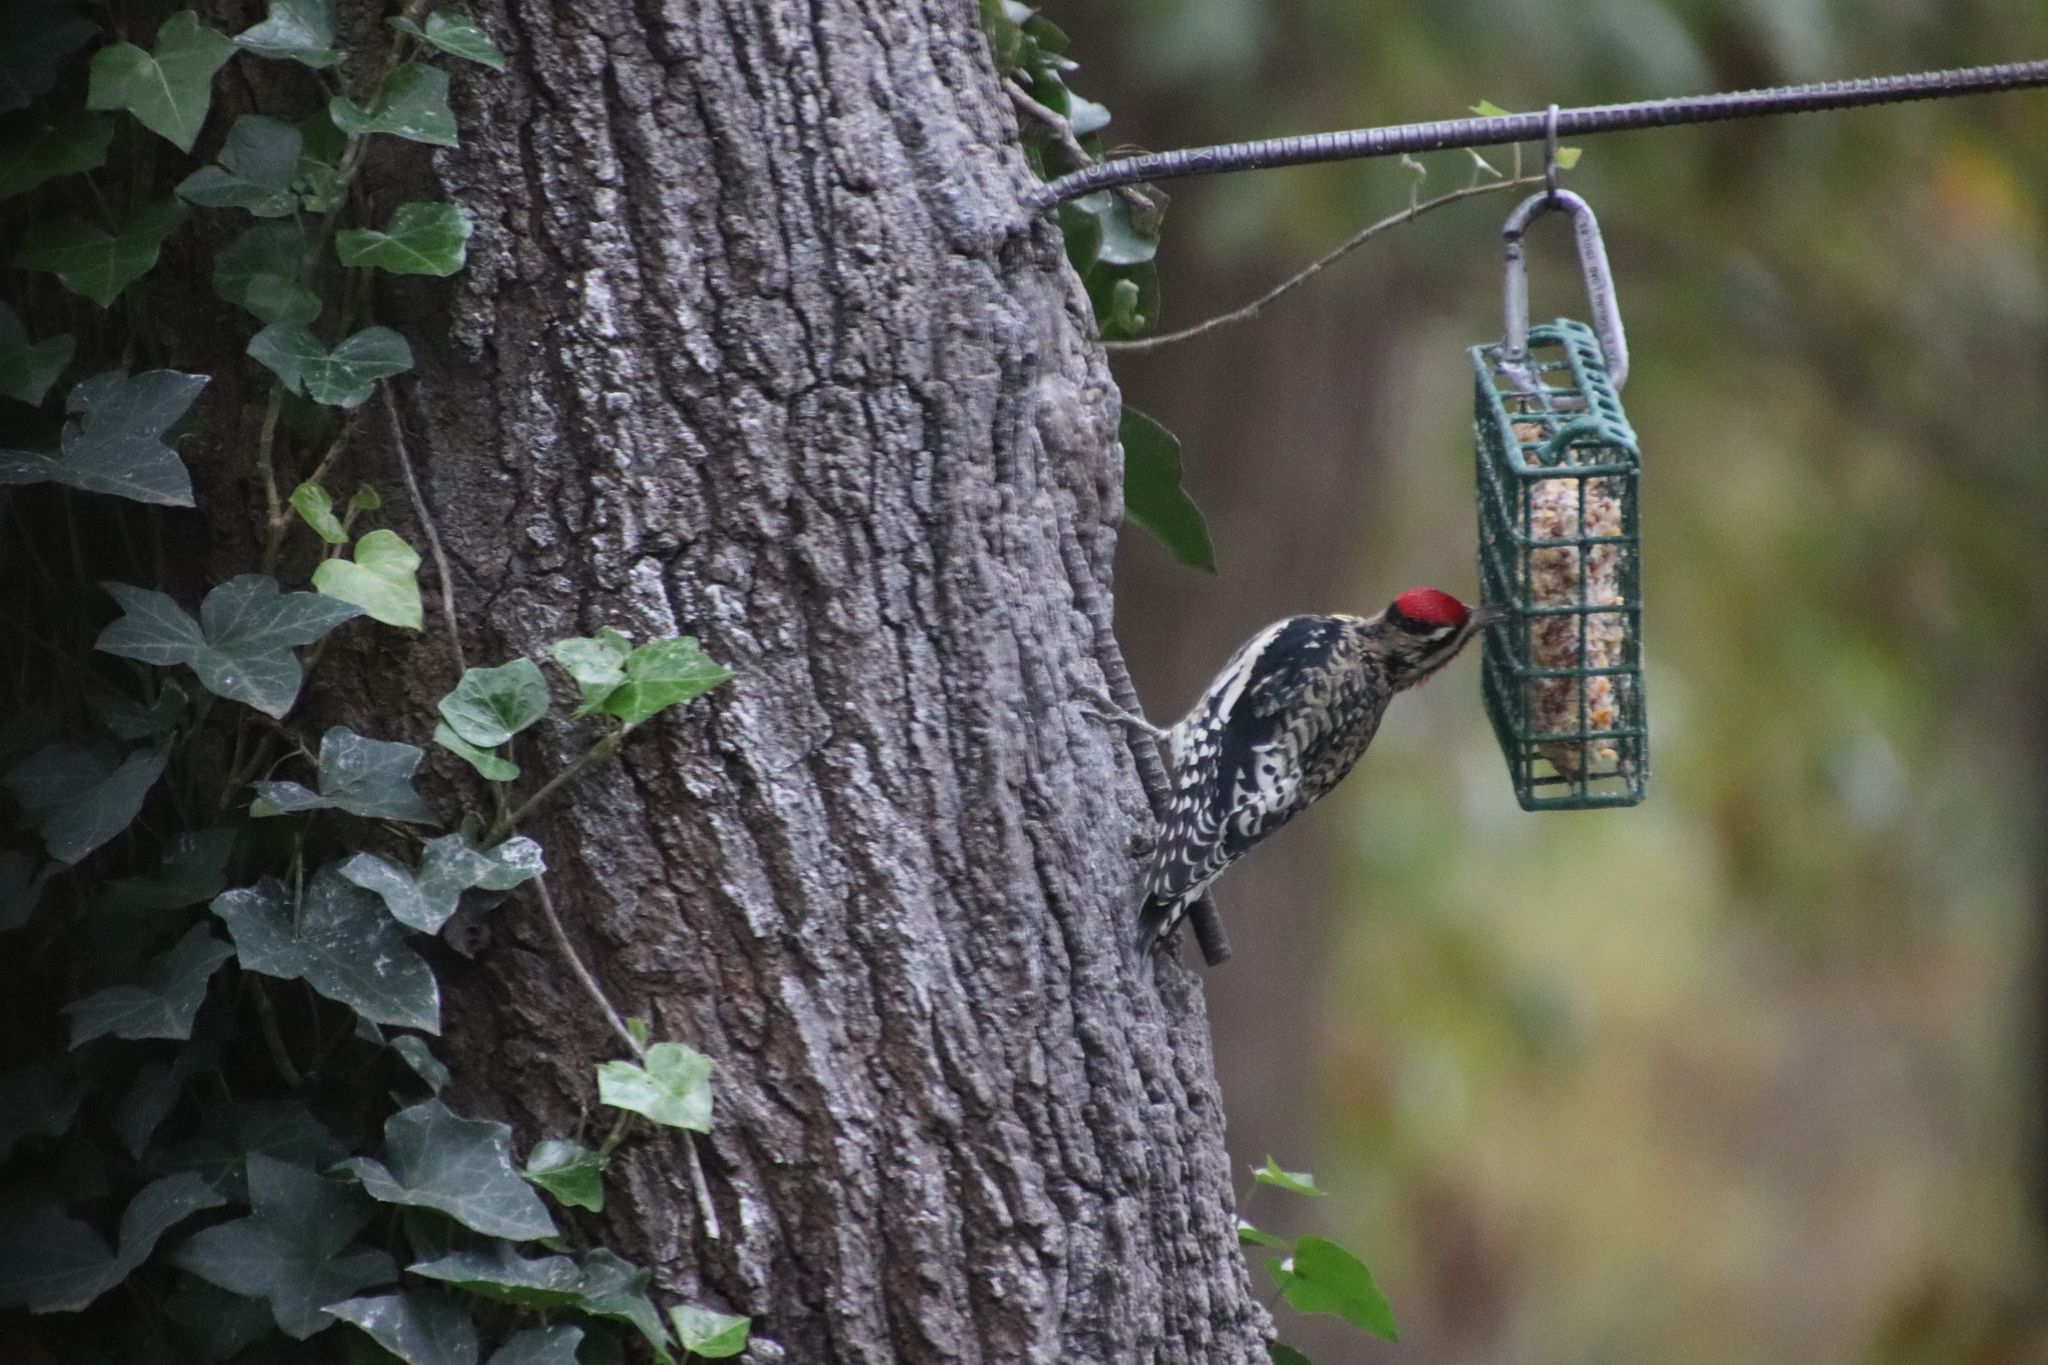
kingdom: Animalia
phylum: Chordata
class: Aves
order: Piciformes
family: Picidae
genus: Sphyrapicus
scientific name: Sphyrapicus varius
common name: Yellow-bellied sapsucker
